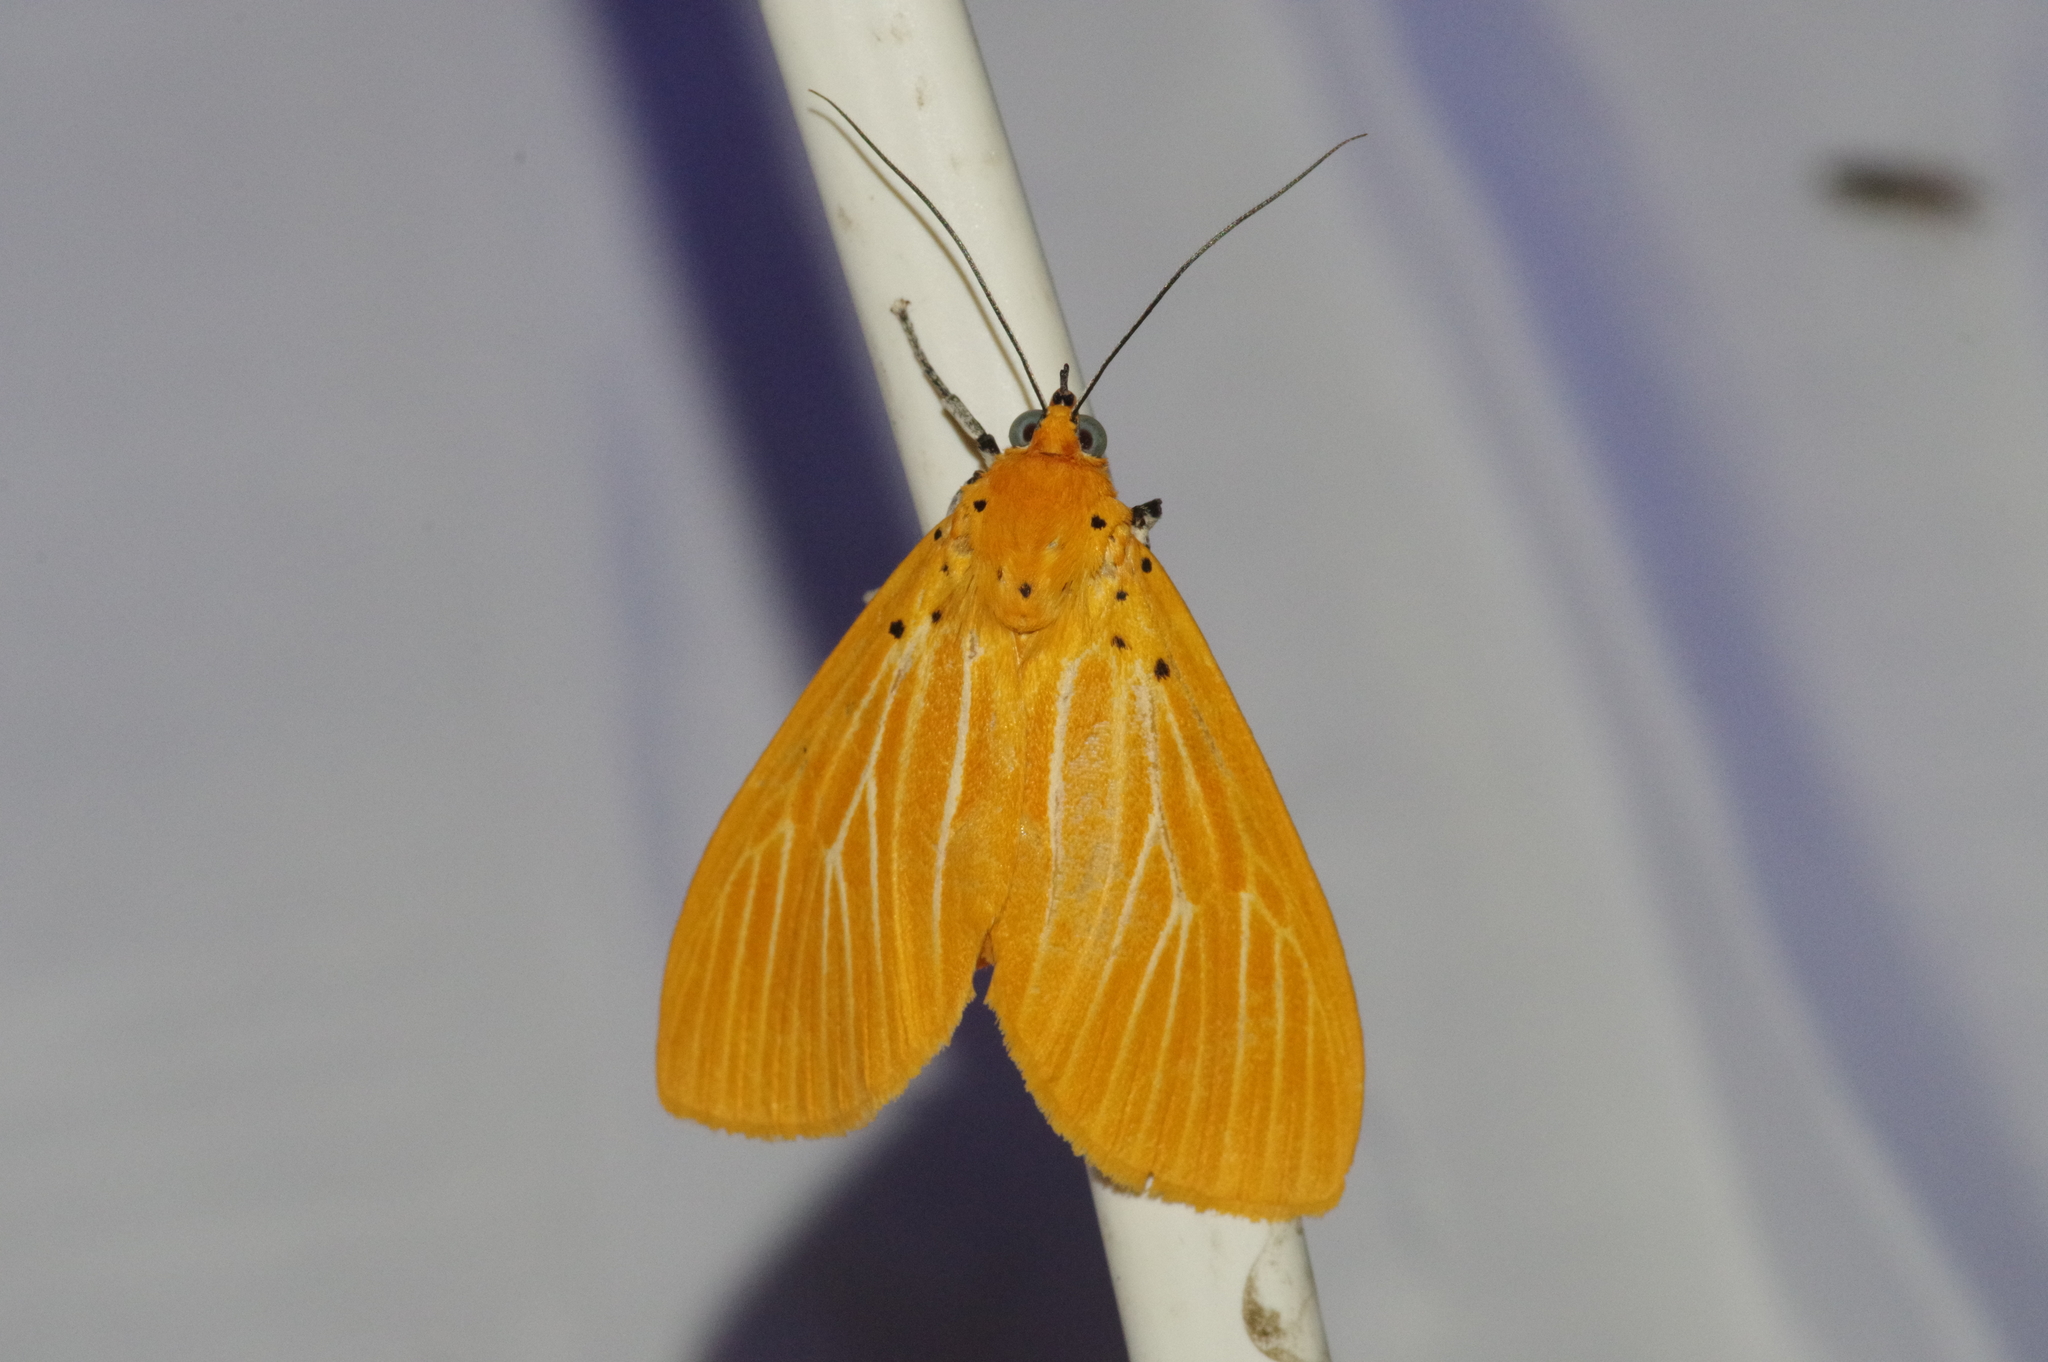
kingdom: Animalia
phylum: Arthropoda
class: Insecta
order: Lepidoptera
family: Erebidae
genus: Asota
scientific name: Asota egens
